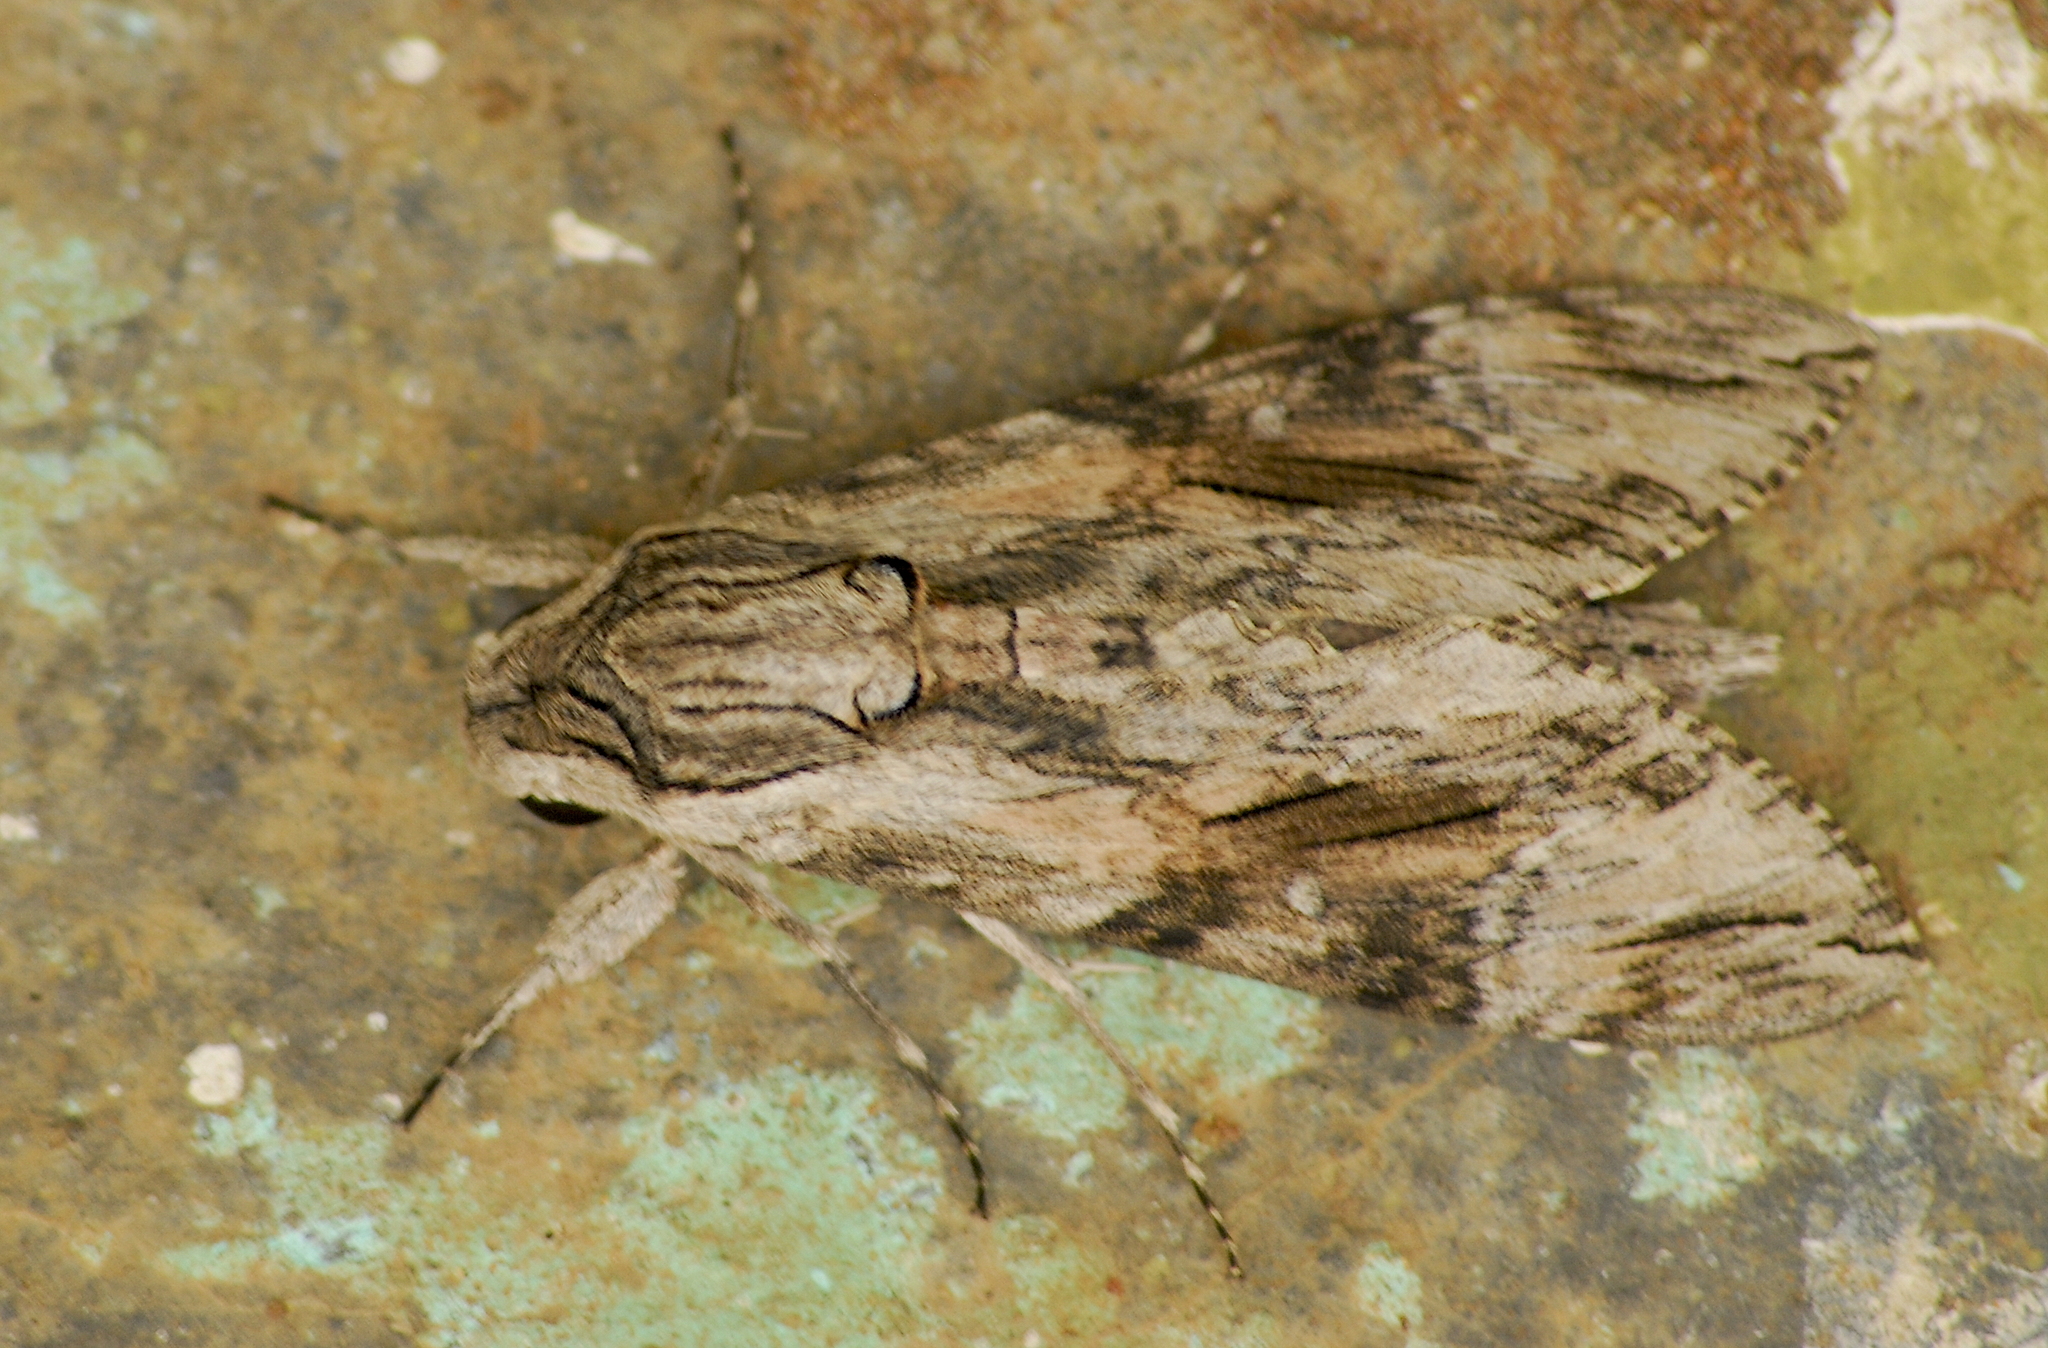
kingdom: Animalia
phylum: Arthropoda
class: Insecta
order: Lepidoptera
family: Sphingidae
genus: Agrius
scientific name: Agrius convolvuli
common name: Convolvulus hawkmoth
